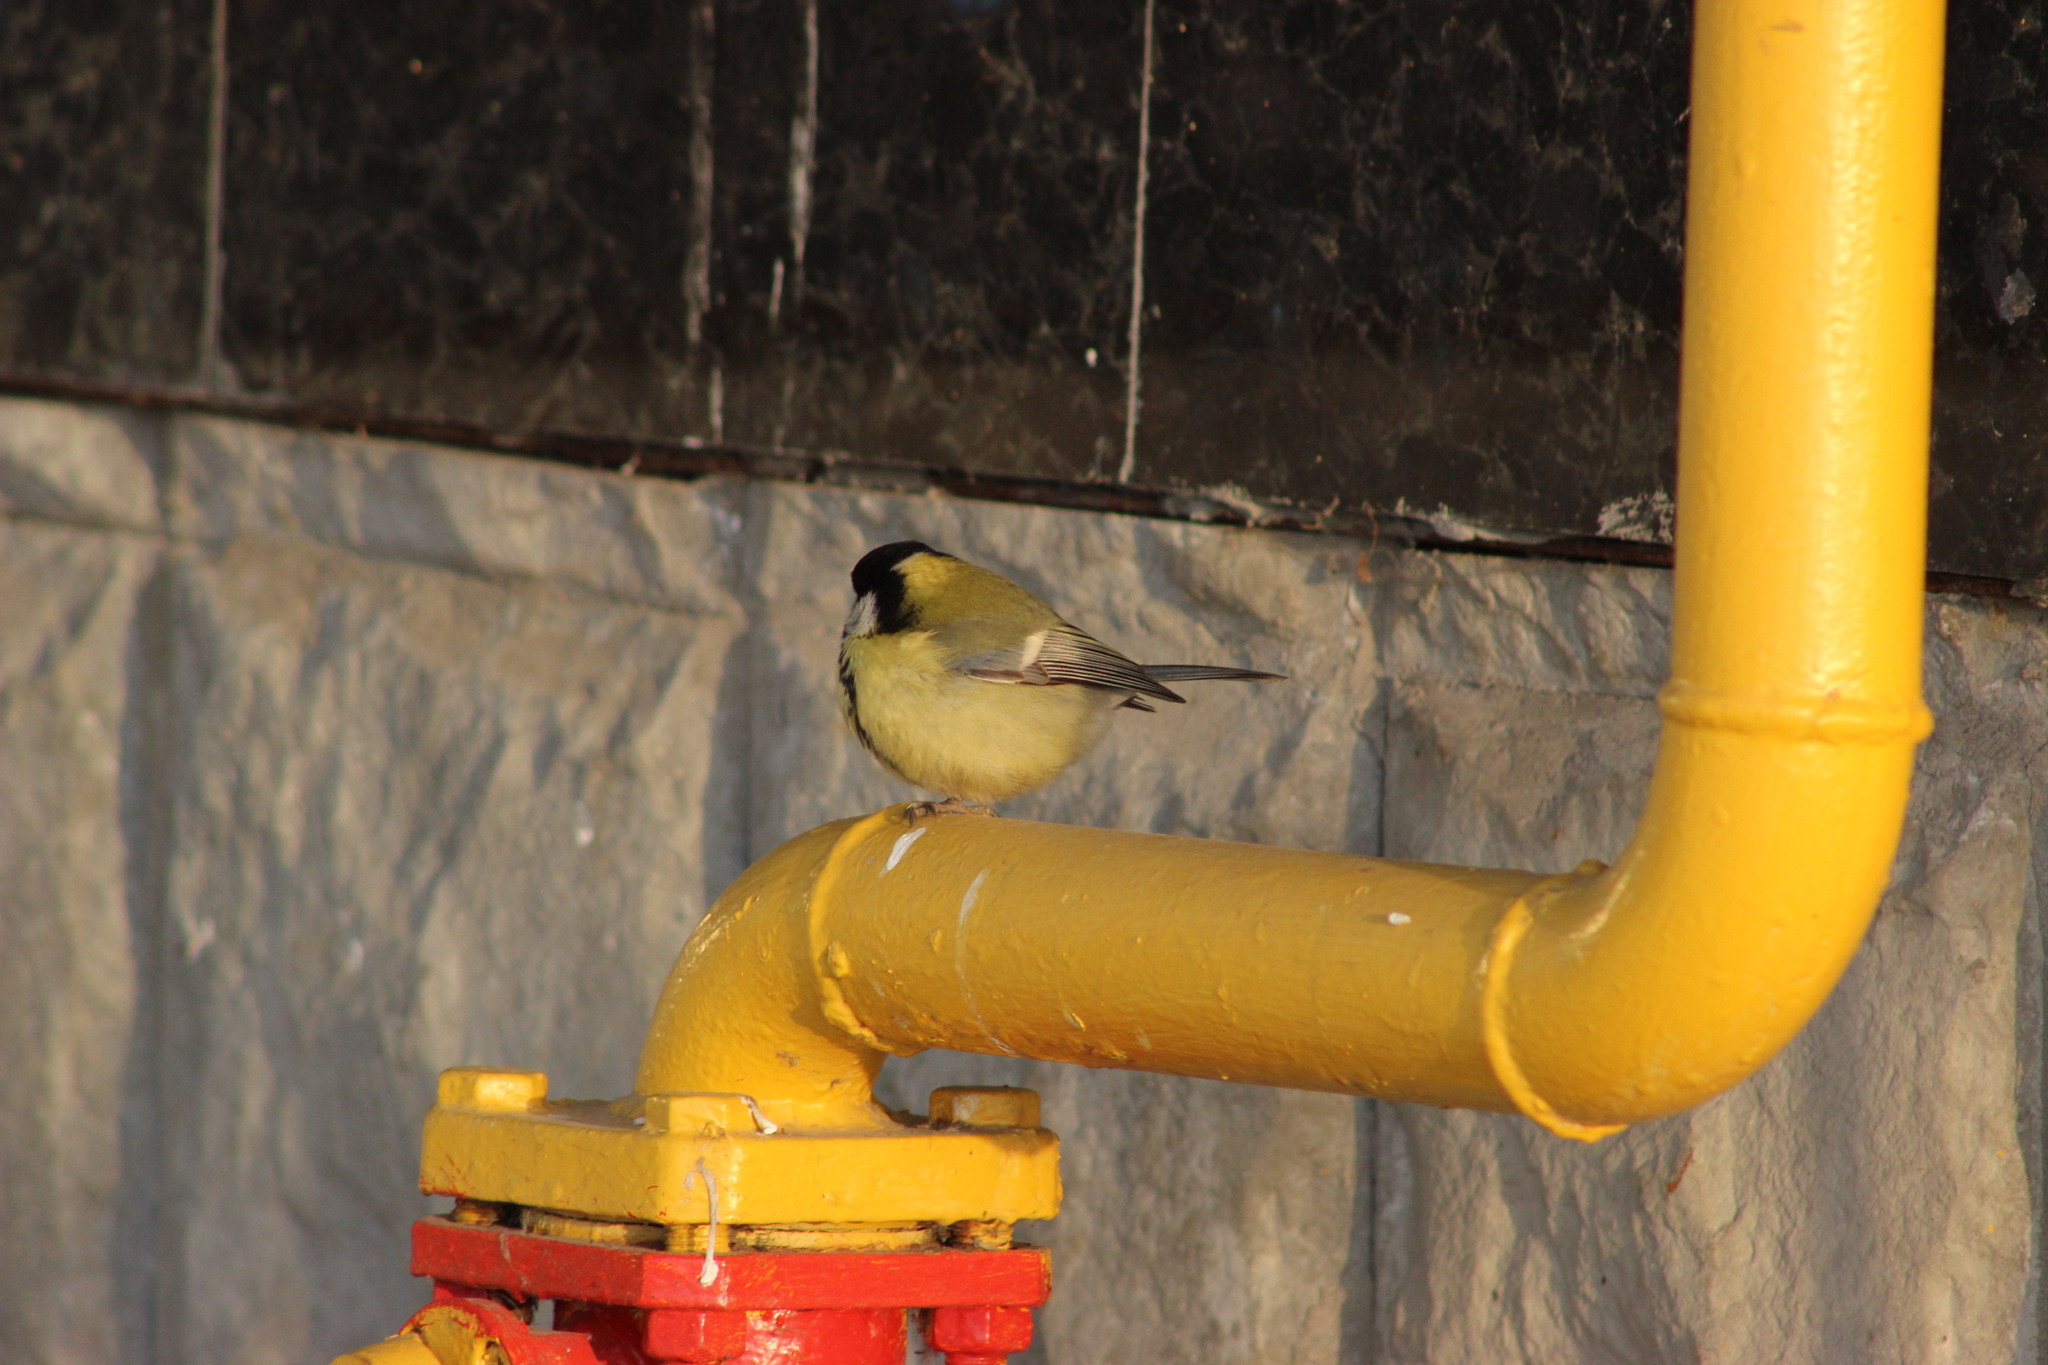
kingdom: Animalia
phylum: Chordata
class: Aves
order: Passeriformes
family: Paridae
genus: Parus
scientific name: Parus major
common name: Great tit
